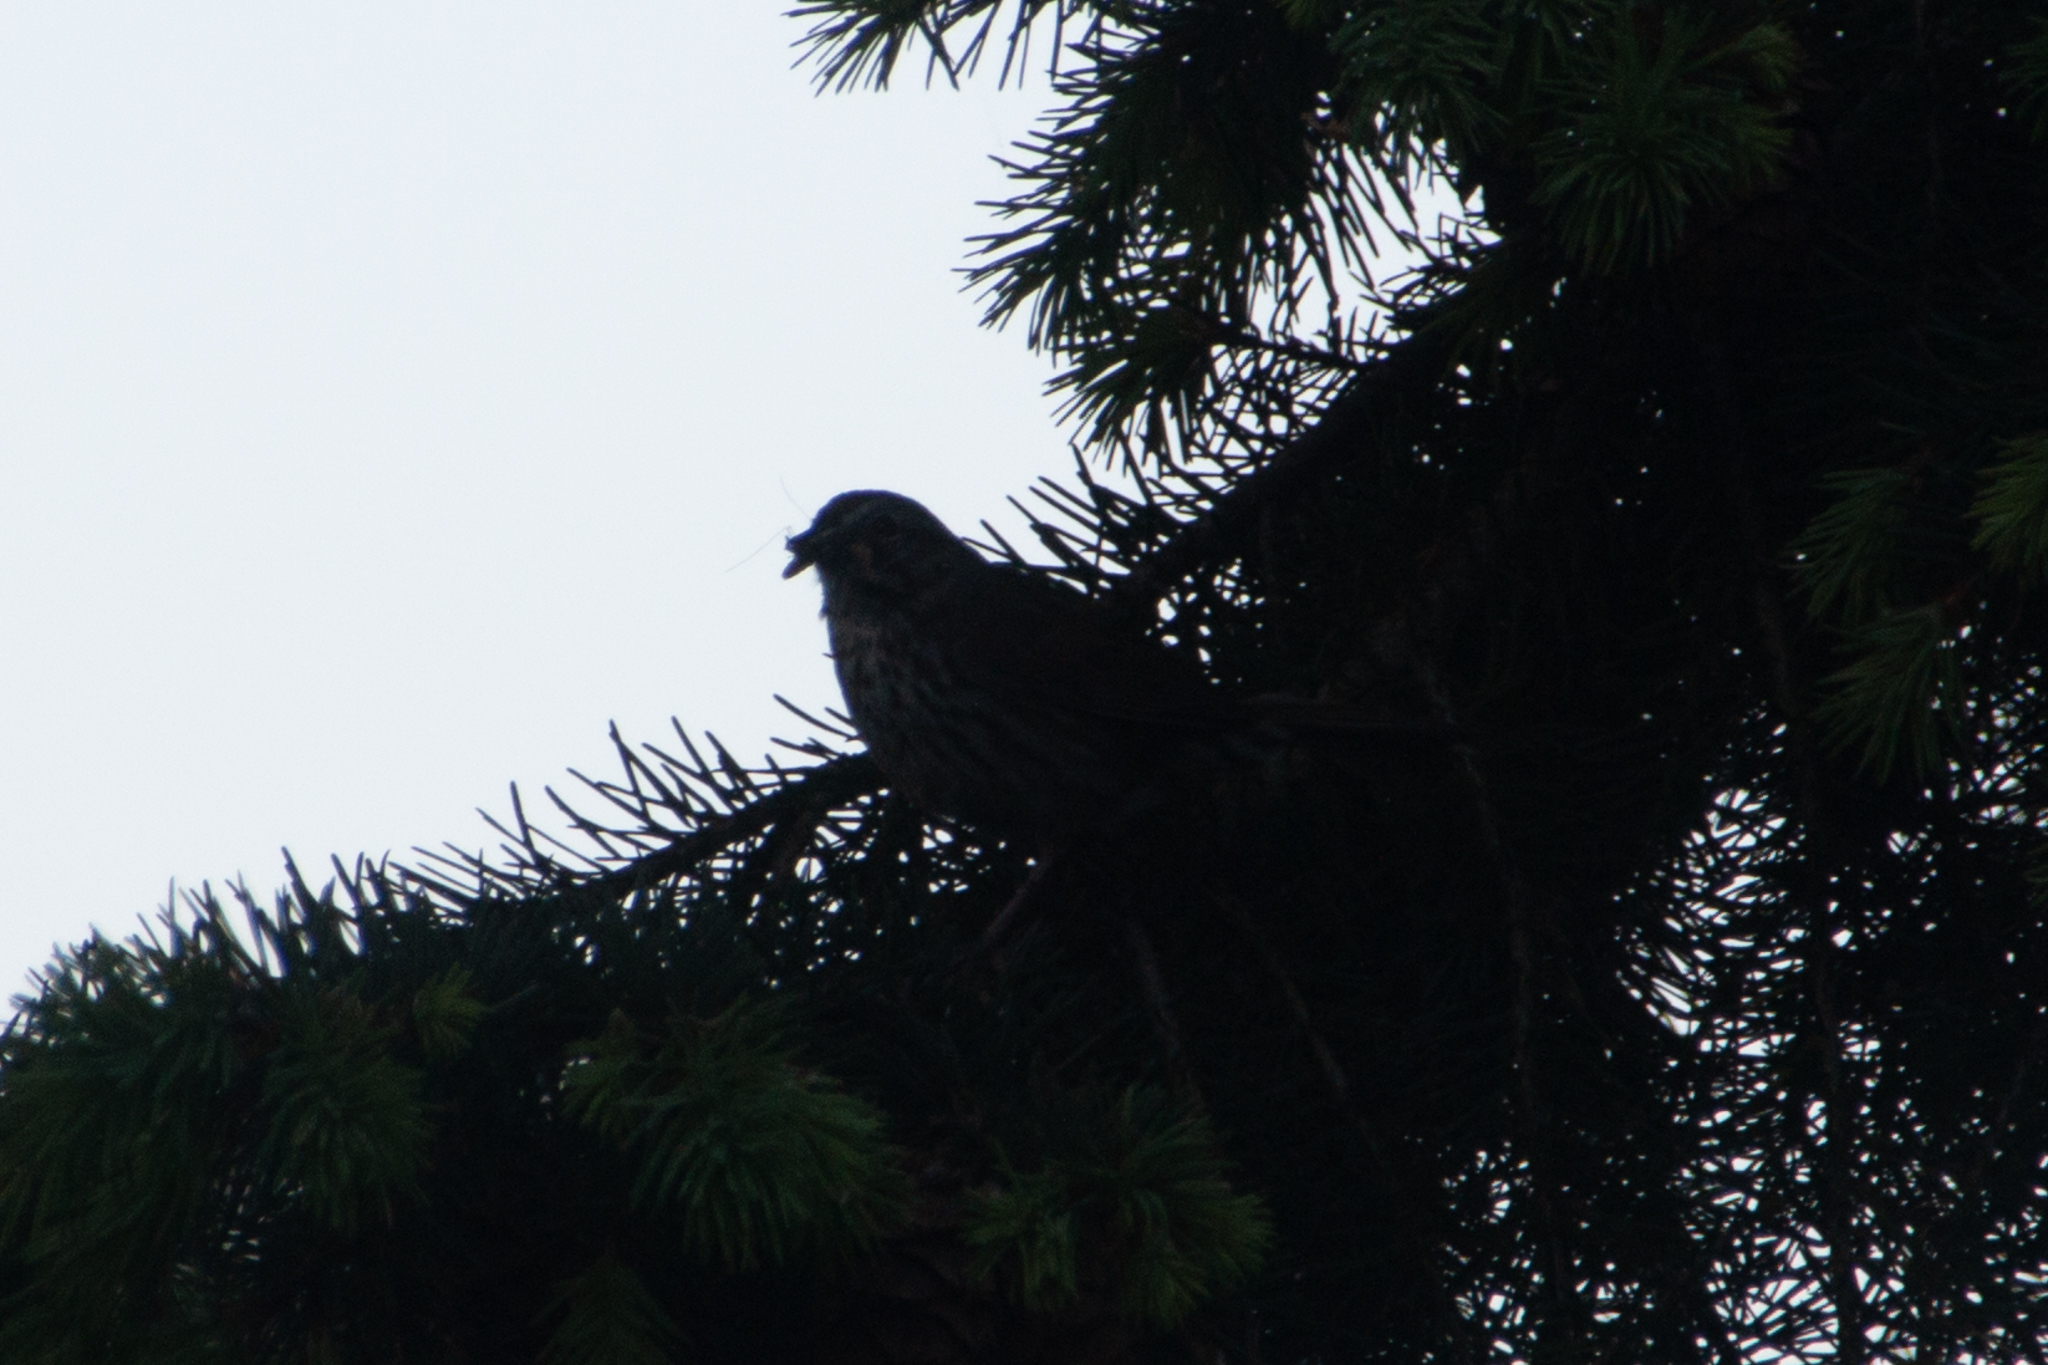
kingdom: Animalia
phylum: Chordata
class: Aves
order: Passeriformes
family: Passerellidae
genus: Melospiza
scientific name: Melospiza melodia
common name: Song sparrow
